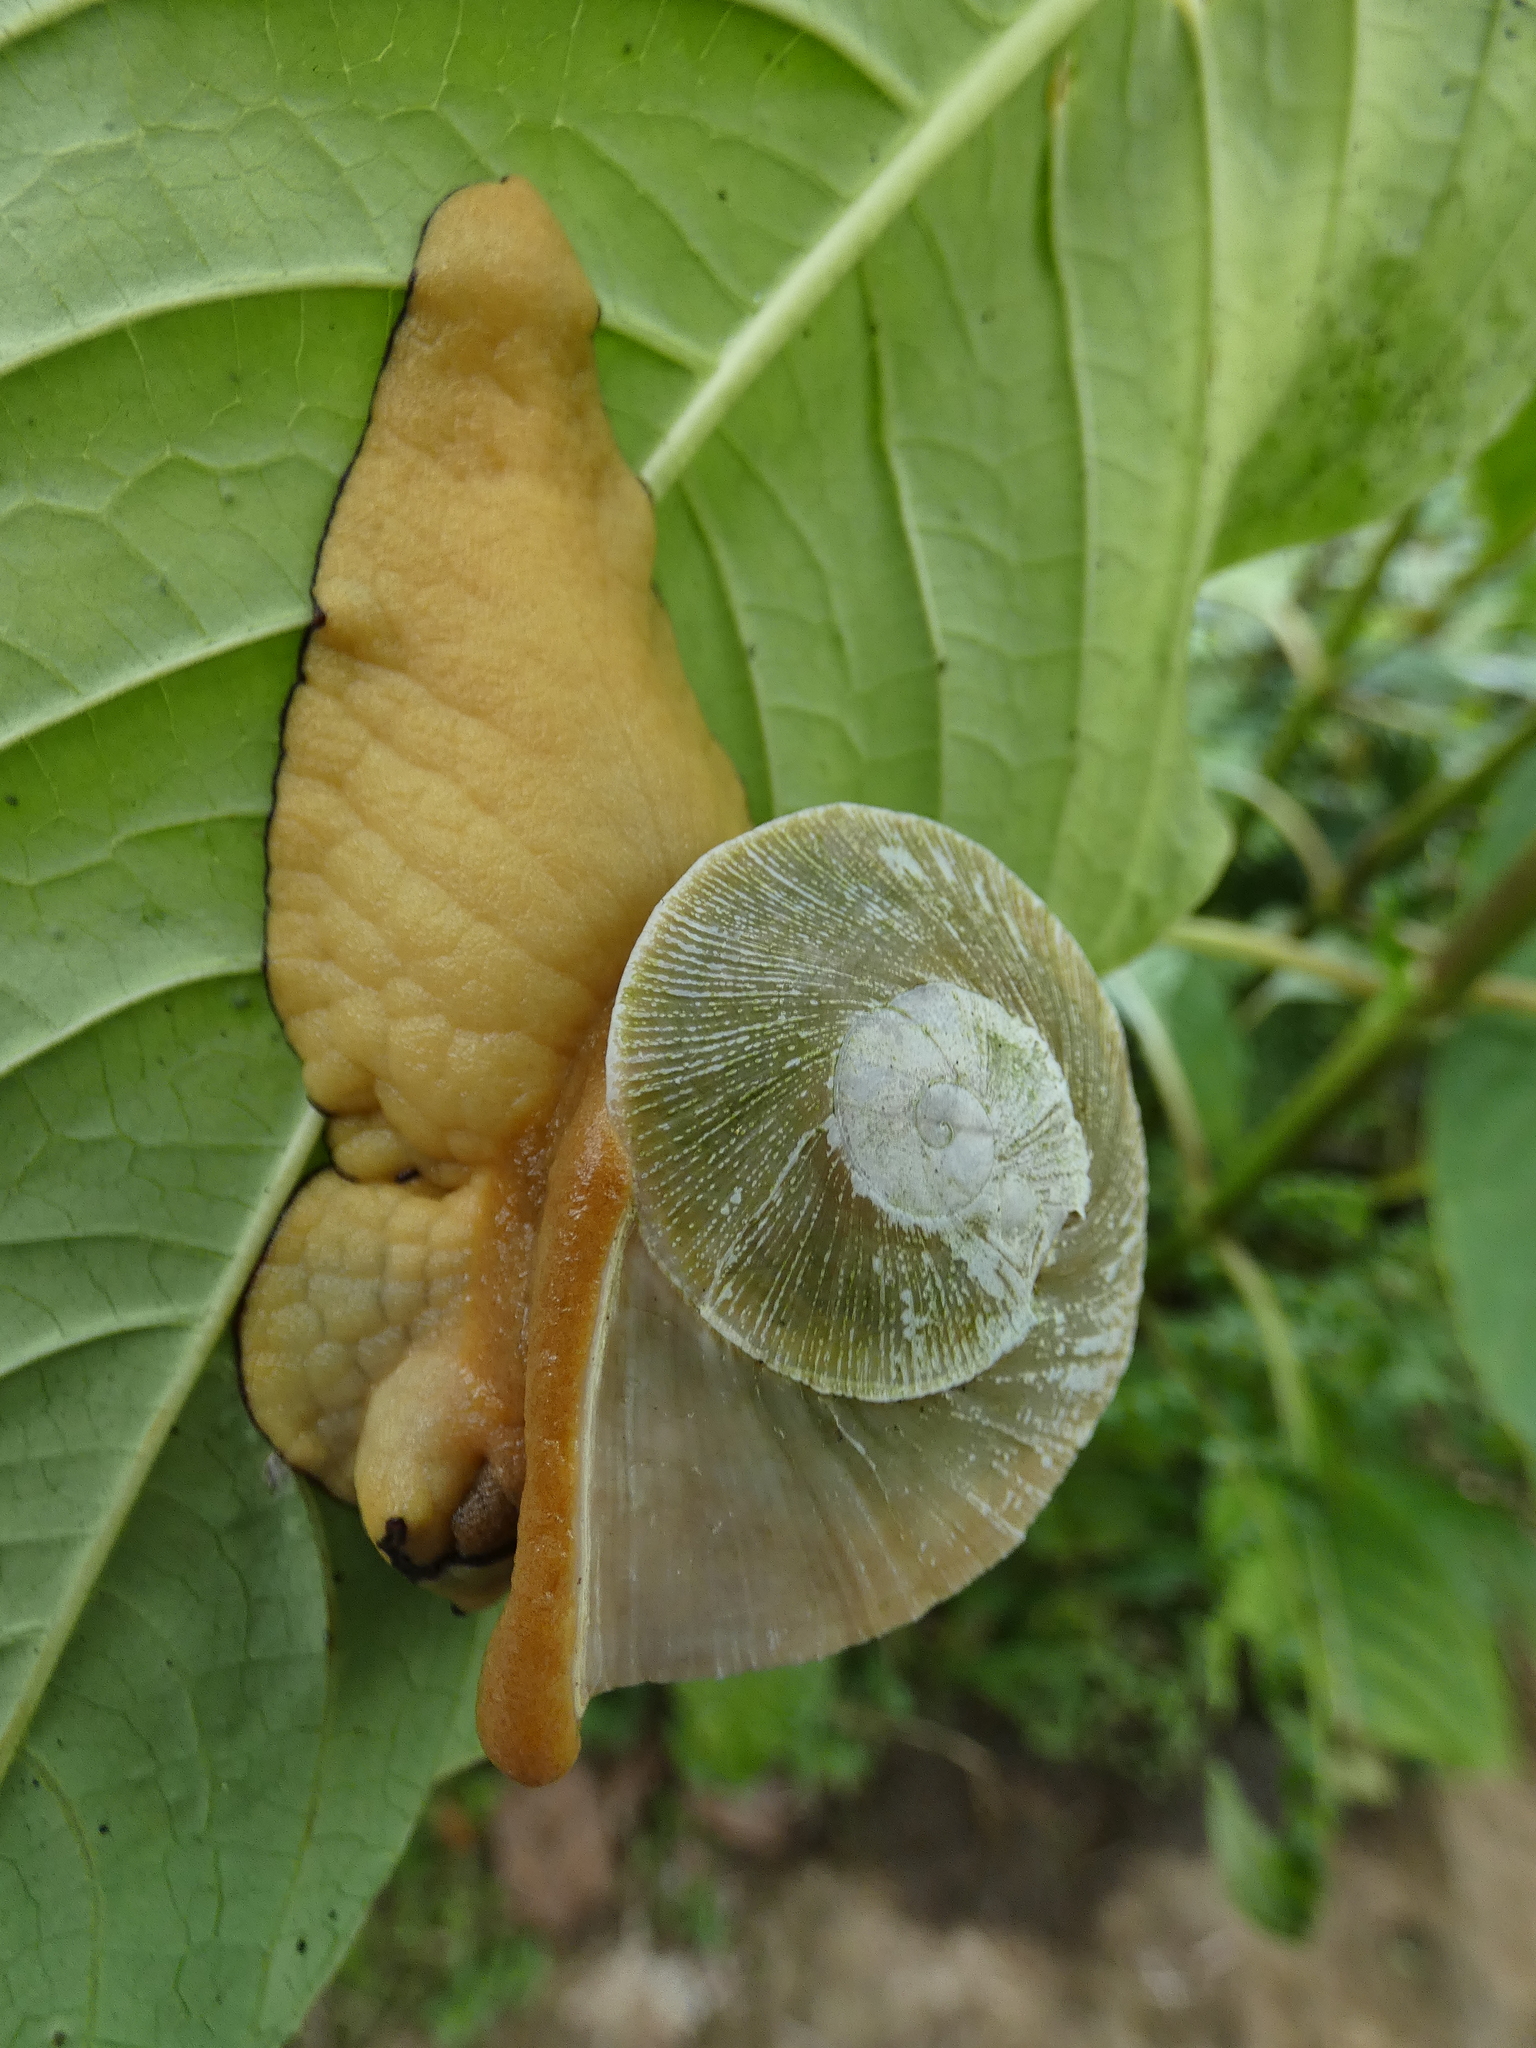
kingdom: Animalia
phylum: Mollusca
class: Gastropoda
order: Stylommatophora
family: Sagdidae
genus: Parthena
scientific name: Parthena acutangula
